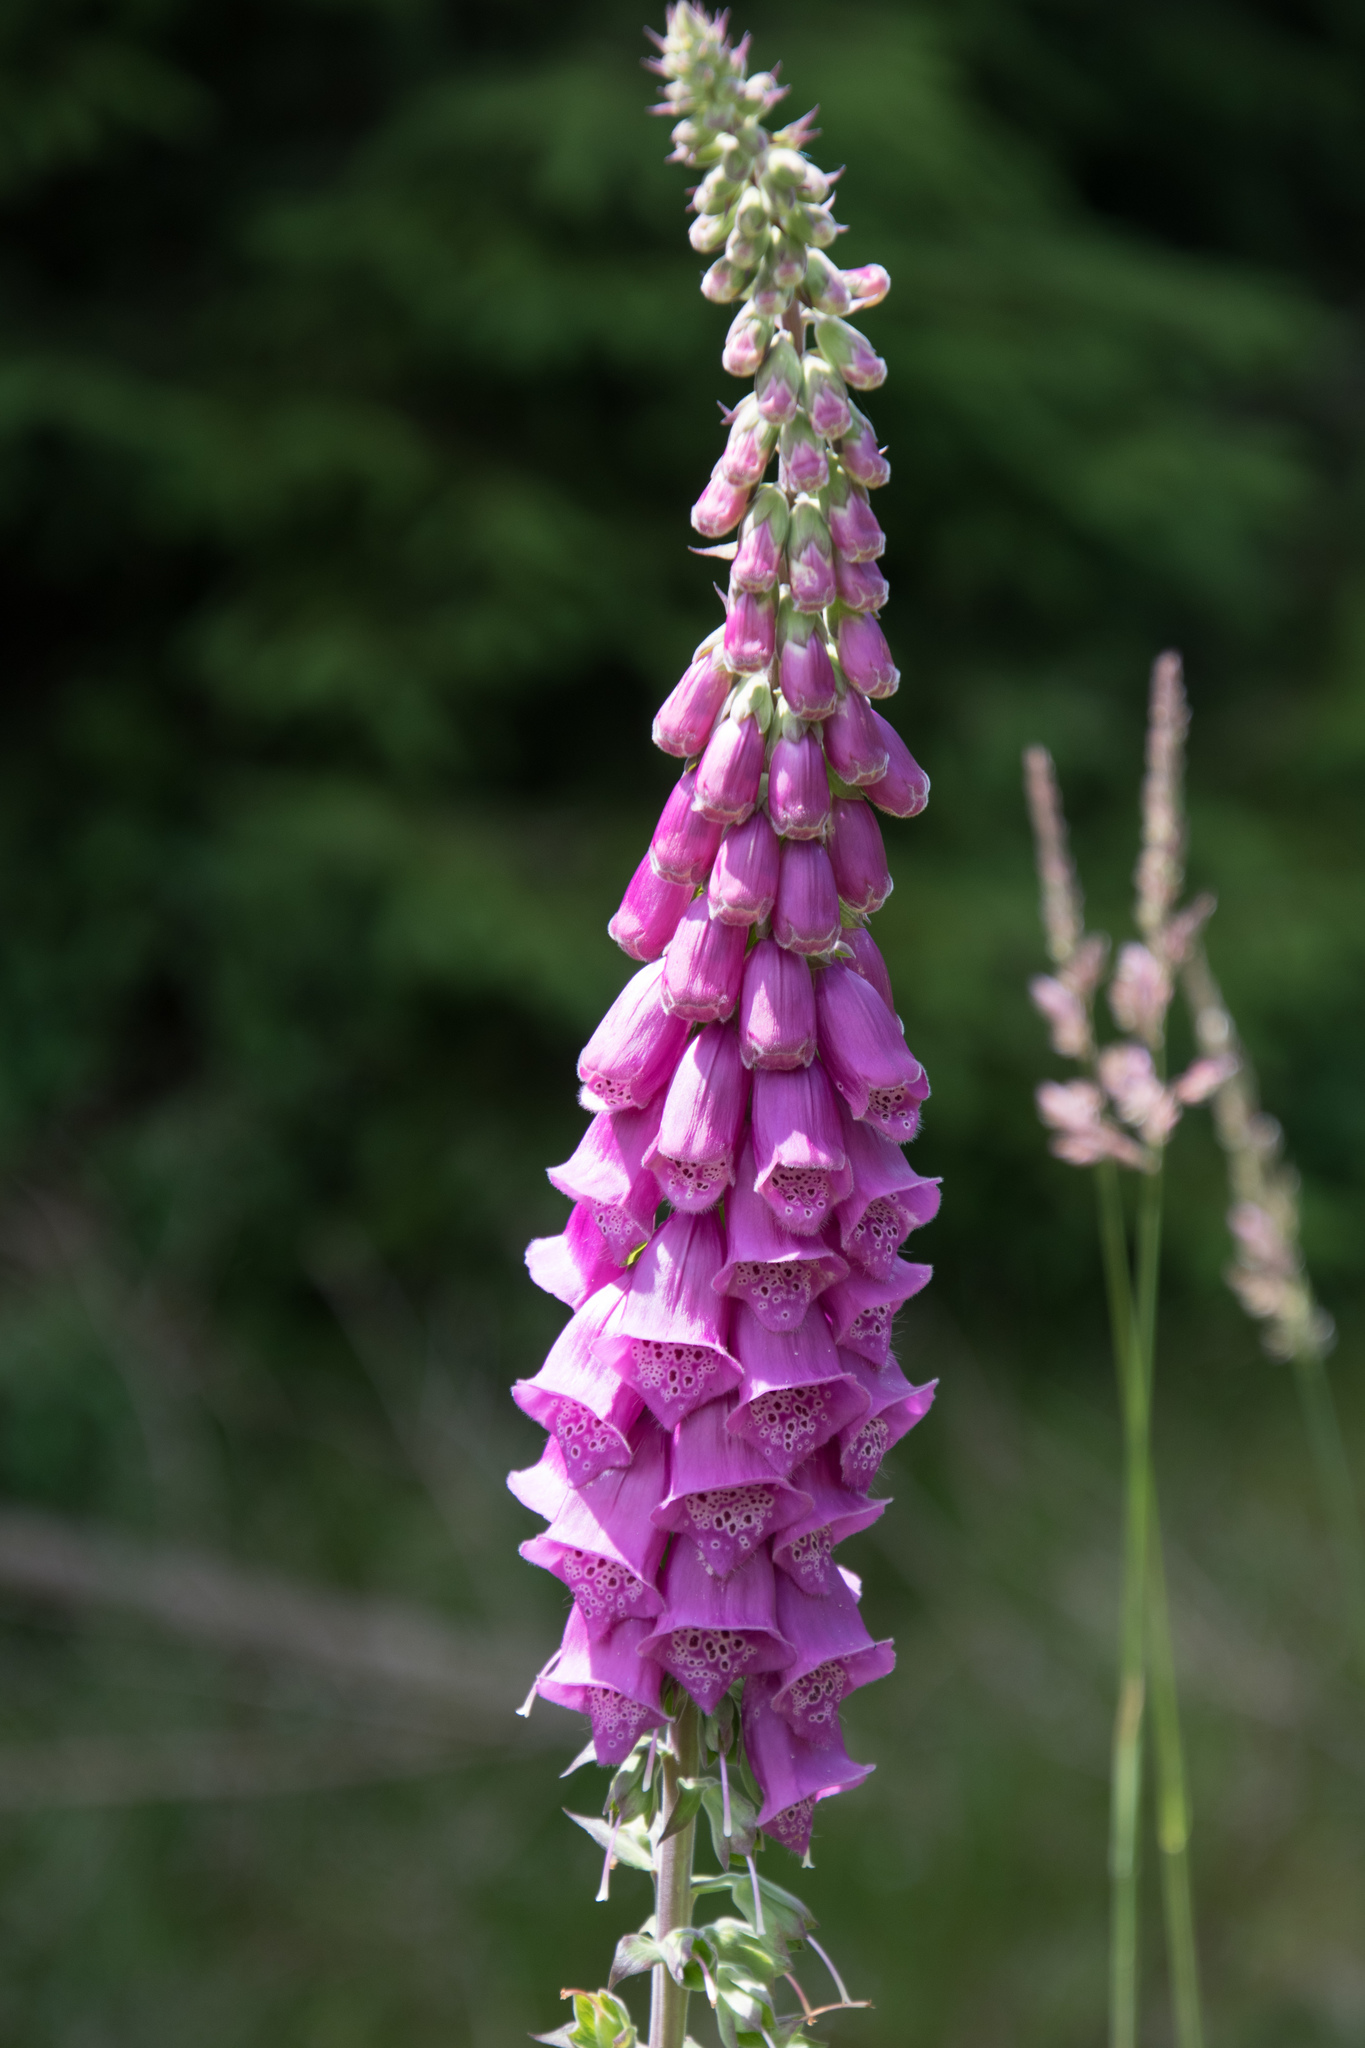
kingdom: Plantae
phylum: Tracheophyta
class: Magnoliopsida
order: Lamiales
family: Plantaginaceae
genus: Digitalis
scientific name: Digitalis purpurea
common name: Foxglove
